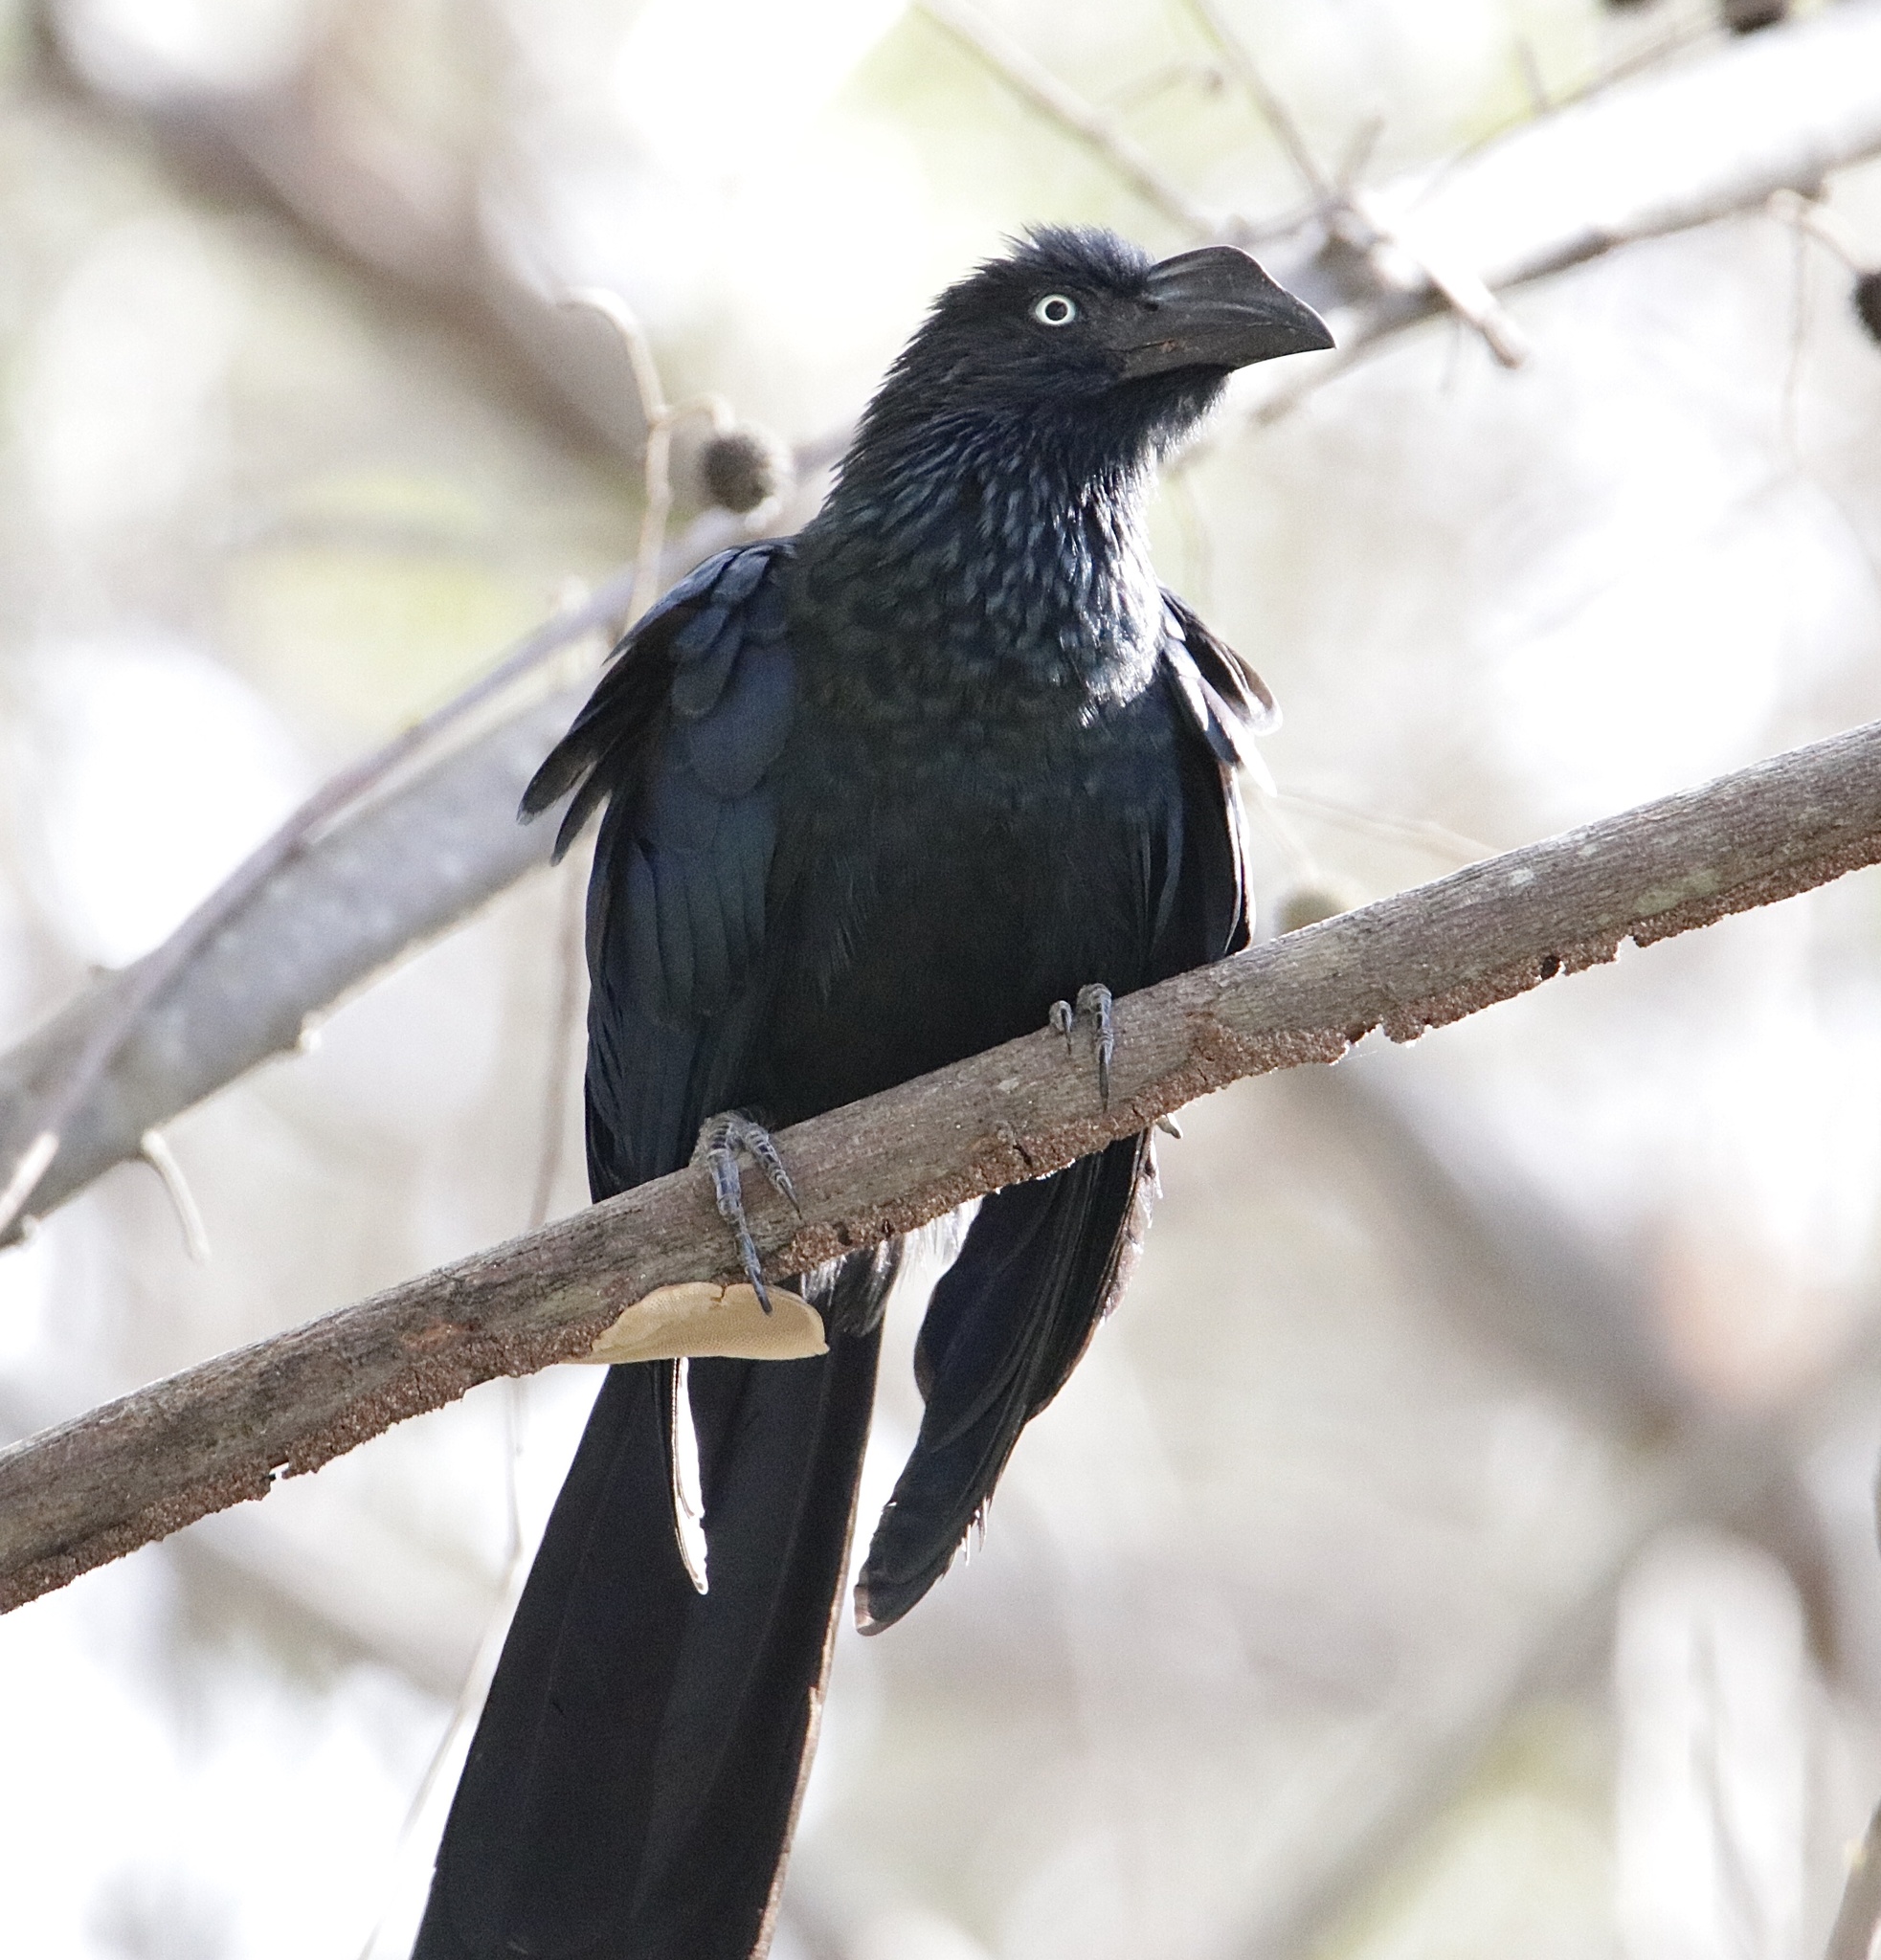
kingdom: Animalia
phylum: Chordata
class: Aves
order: Cuculiformes
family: Cuculidae
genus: Crotophaga
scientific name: Crotophaga major
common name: Greater ani
